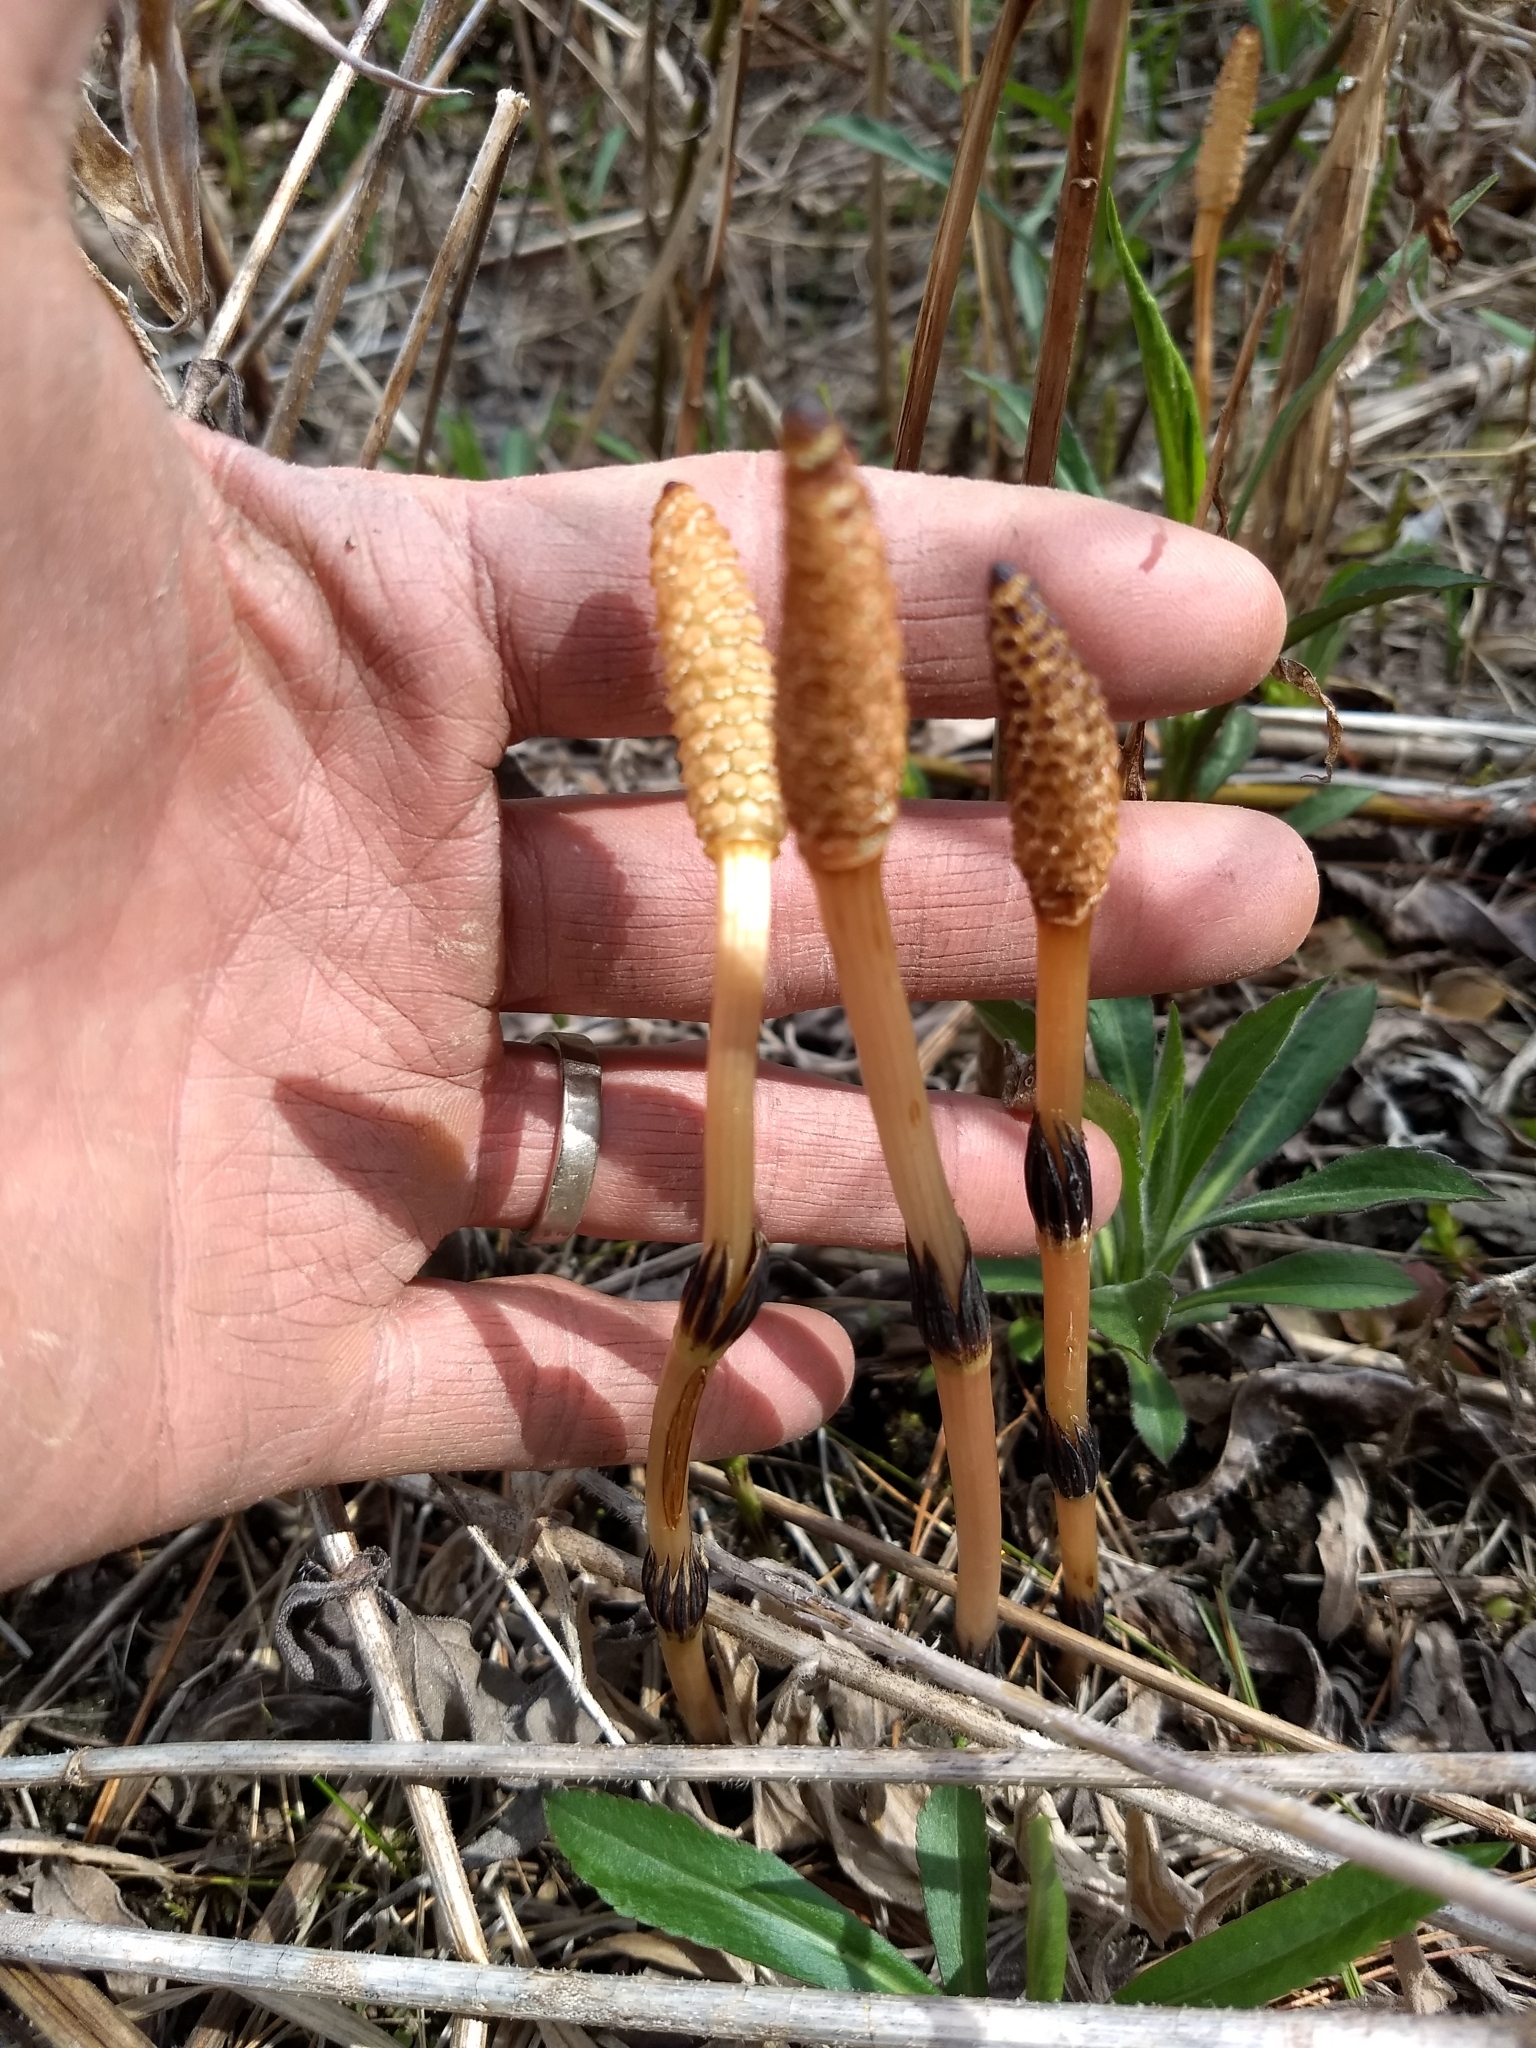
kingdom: Plantae
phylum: Tracheophyta
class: Polypodiopsida
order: Equisetales
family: Equisetaceae
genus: Equisetum
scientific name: Equisetum arvense
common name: Field horsetail
